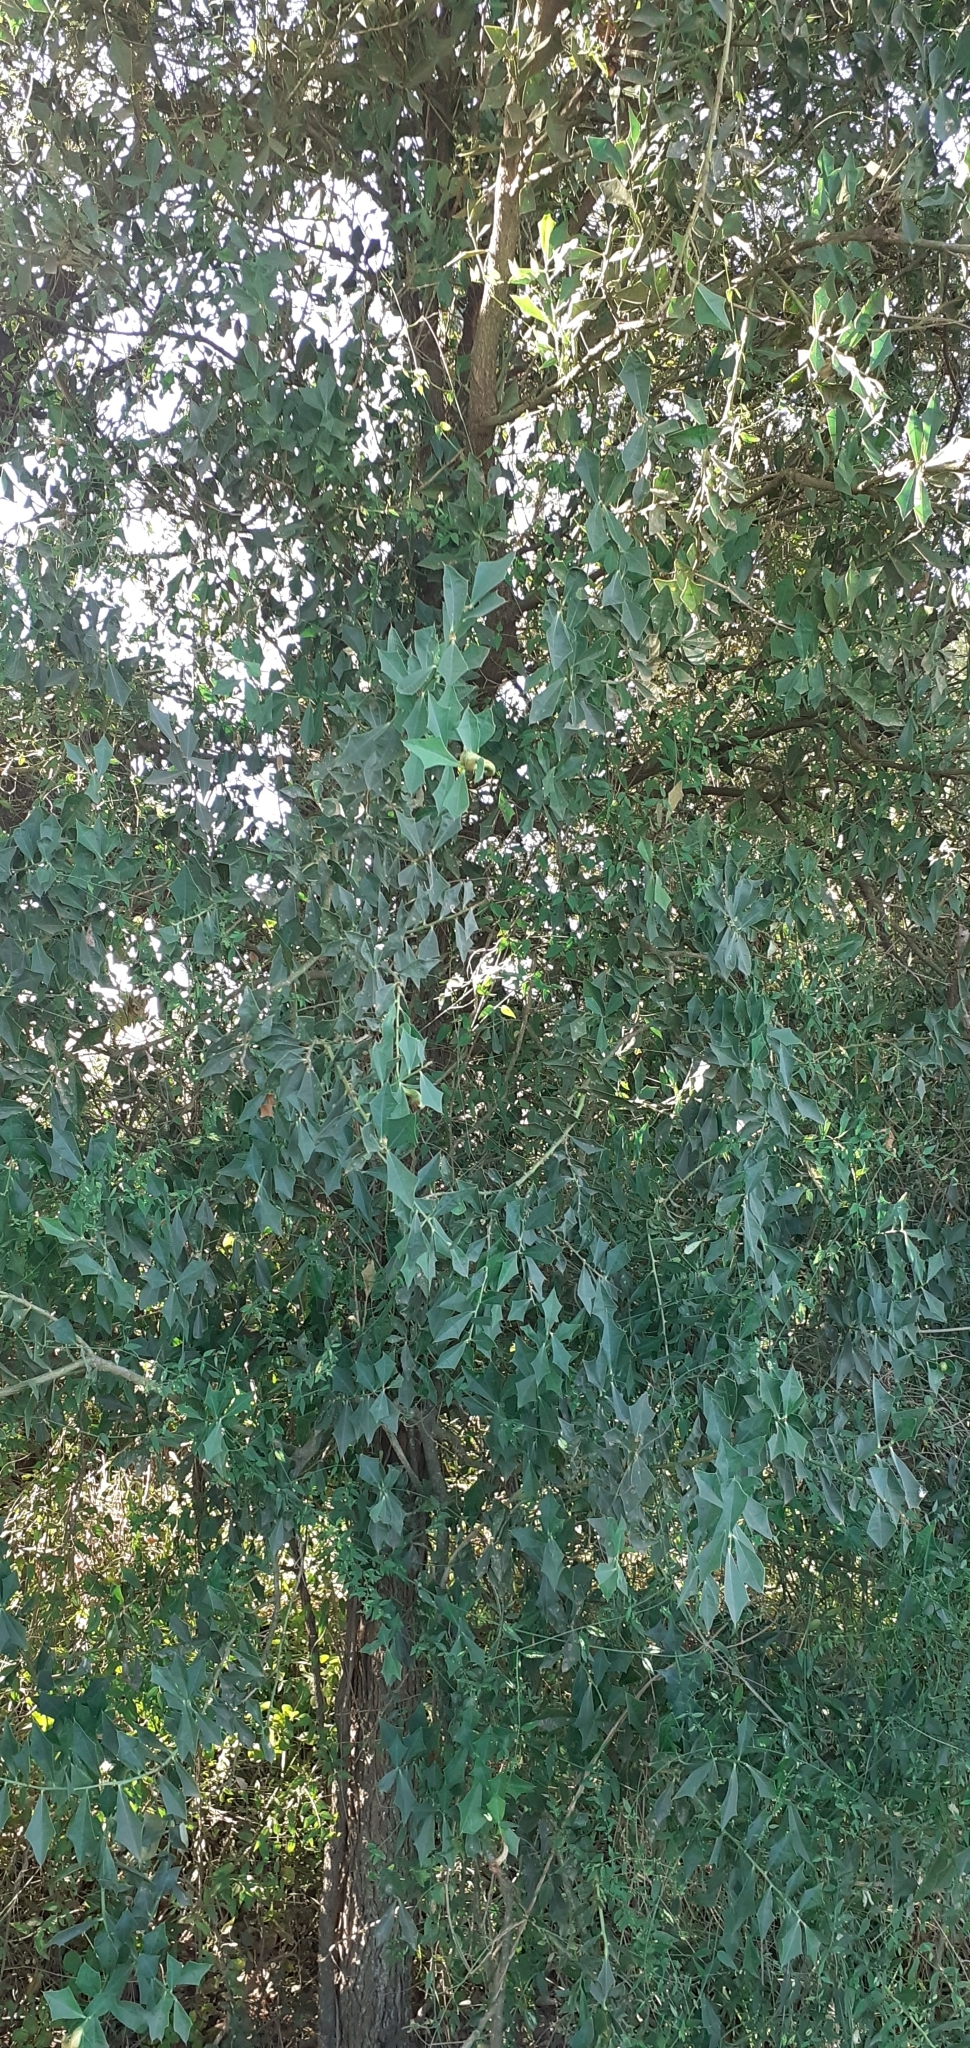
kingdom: Plantae
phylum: Tracheophyta
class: Magnoliopsida
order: Santalales
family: Cervantesiaceae
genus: Jodina
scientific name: Jodina rhombifolia
